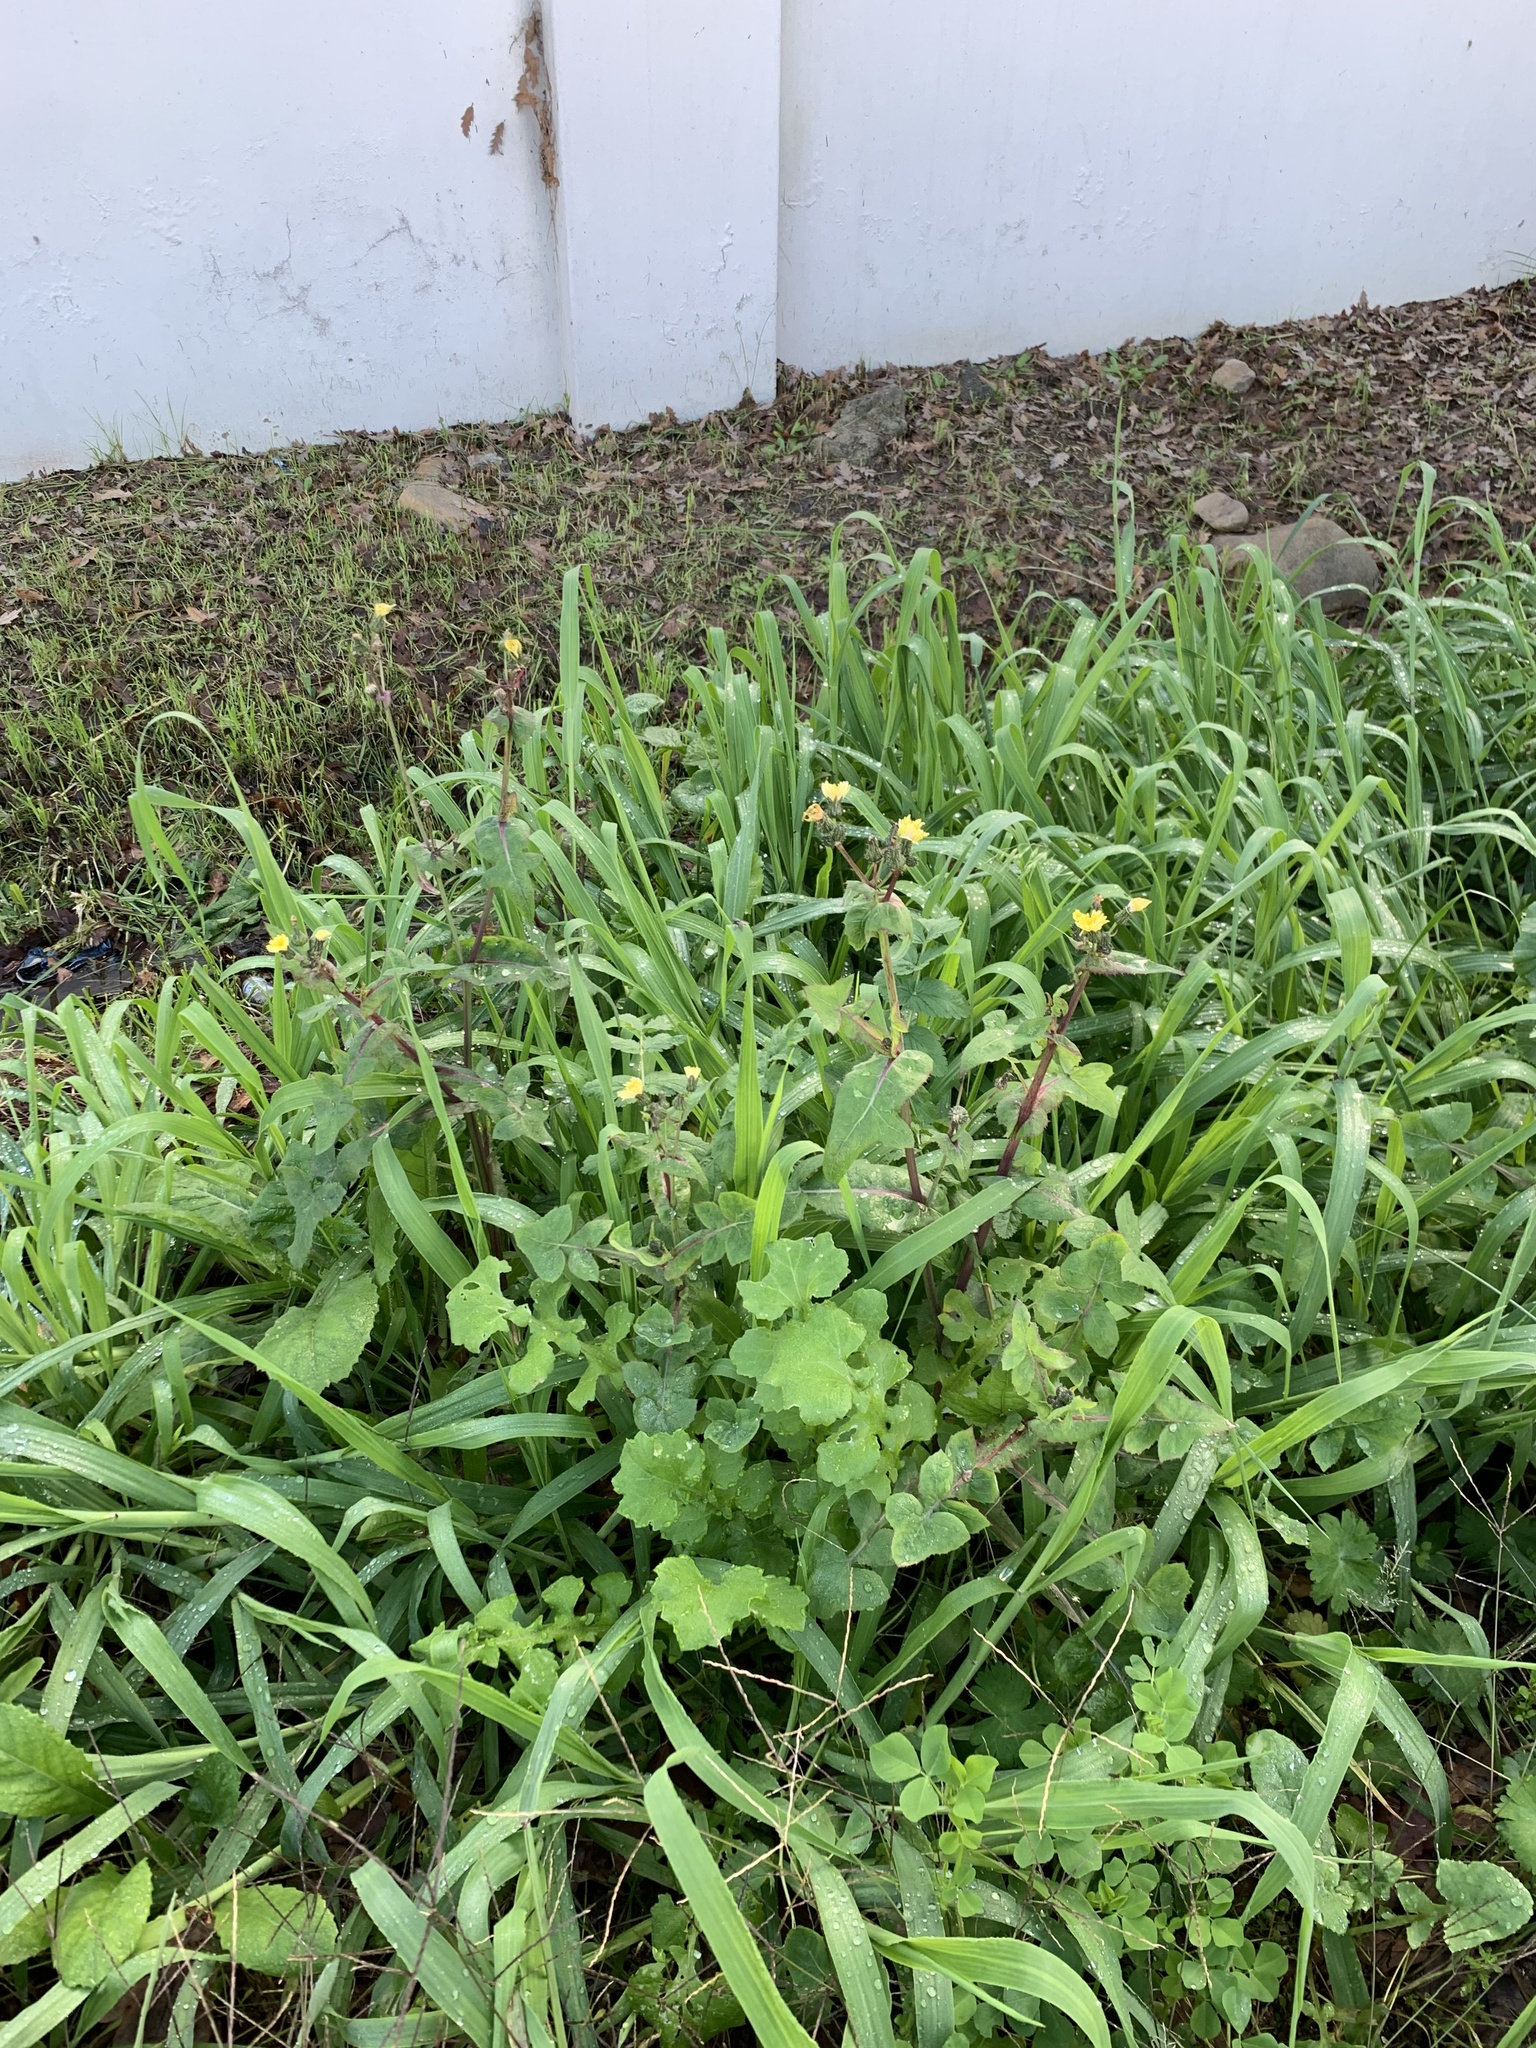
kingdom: Plantae
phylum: Tracheophyta
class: Magnoliopsida
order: Asterales
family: Asteraceae
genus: Sonchus
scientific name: Sonchus oleraceus
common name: Common sowthistle
